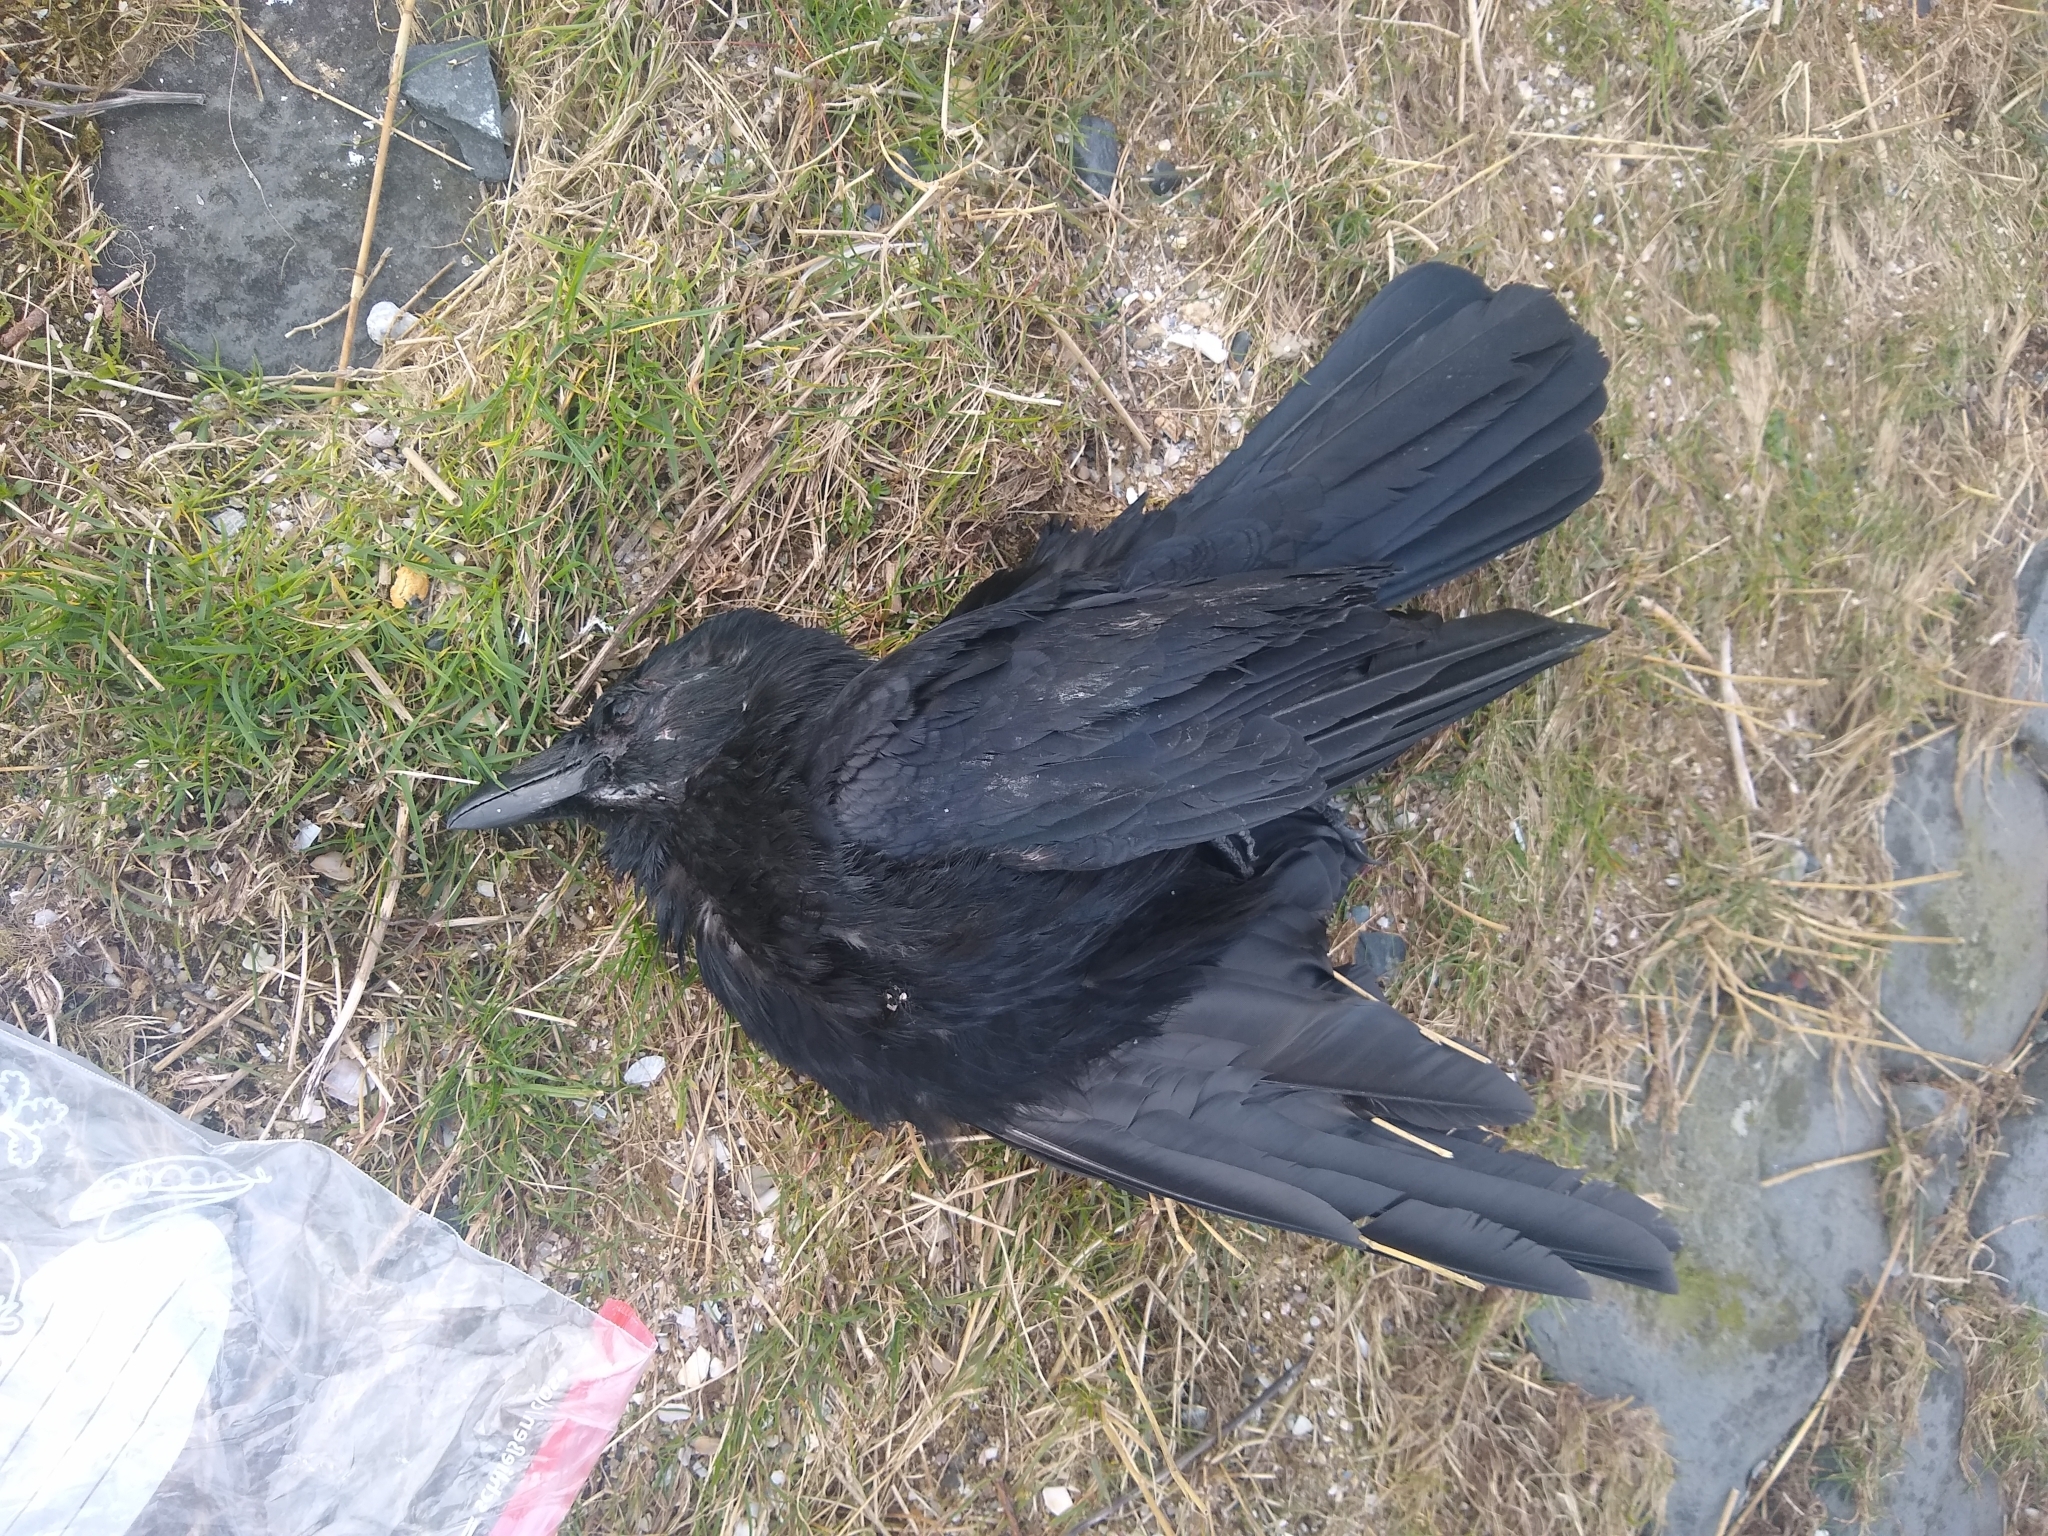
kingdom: Animalia
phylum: Chordata
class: Aves
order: Passeriformes
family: Corvidae
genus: Corvus
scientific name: Corvus corone
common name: Carrion crow
